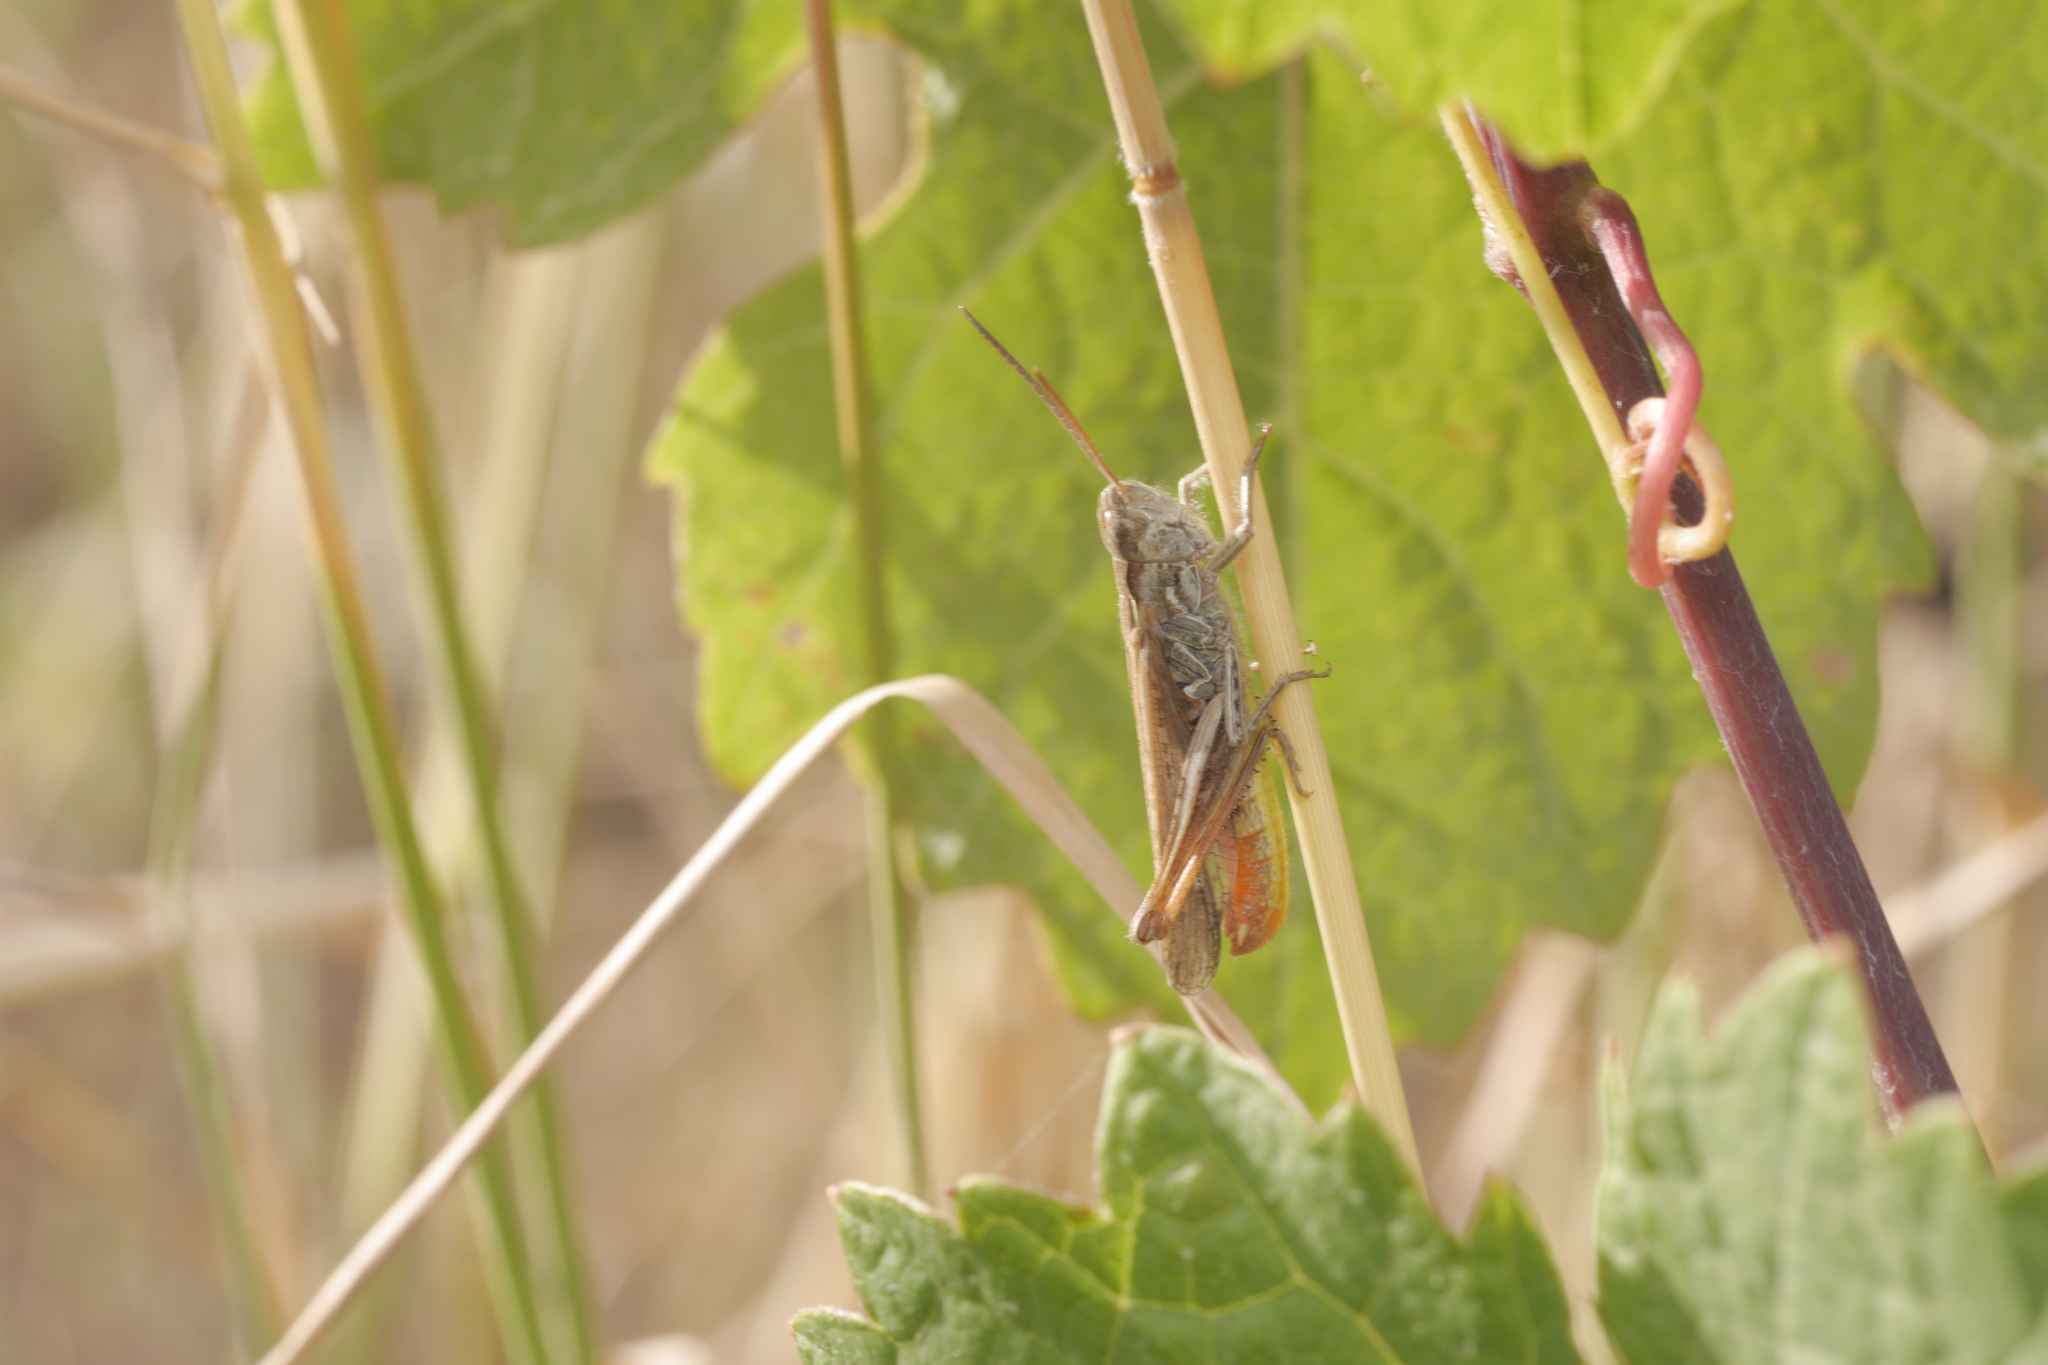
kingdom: Animalia
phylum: Arthropoda
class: Insecta
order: Orthoptera
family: Acrididae
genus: Chorthippus
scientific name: Chorthippus biguttulus
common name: Bow-winged grasshopper
